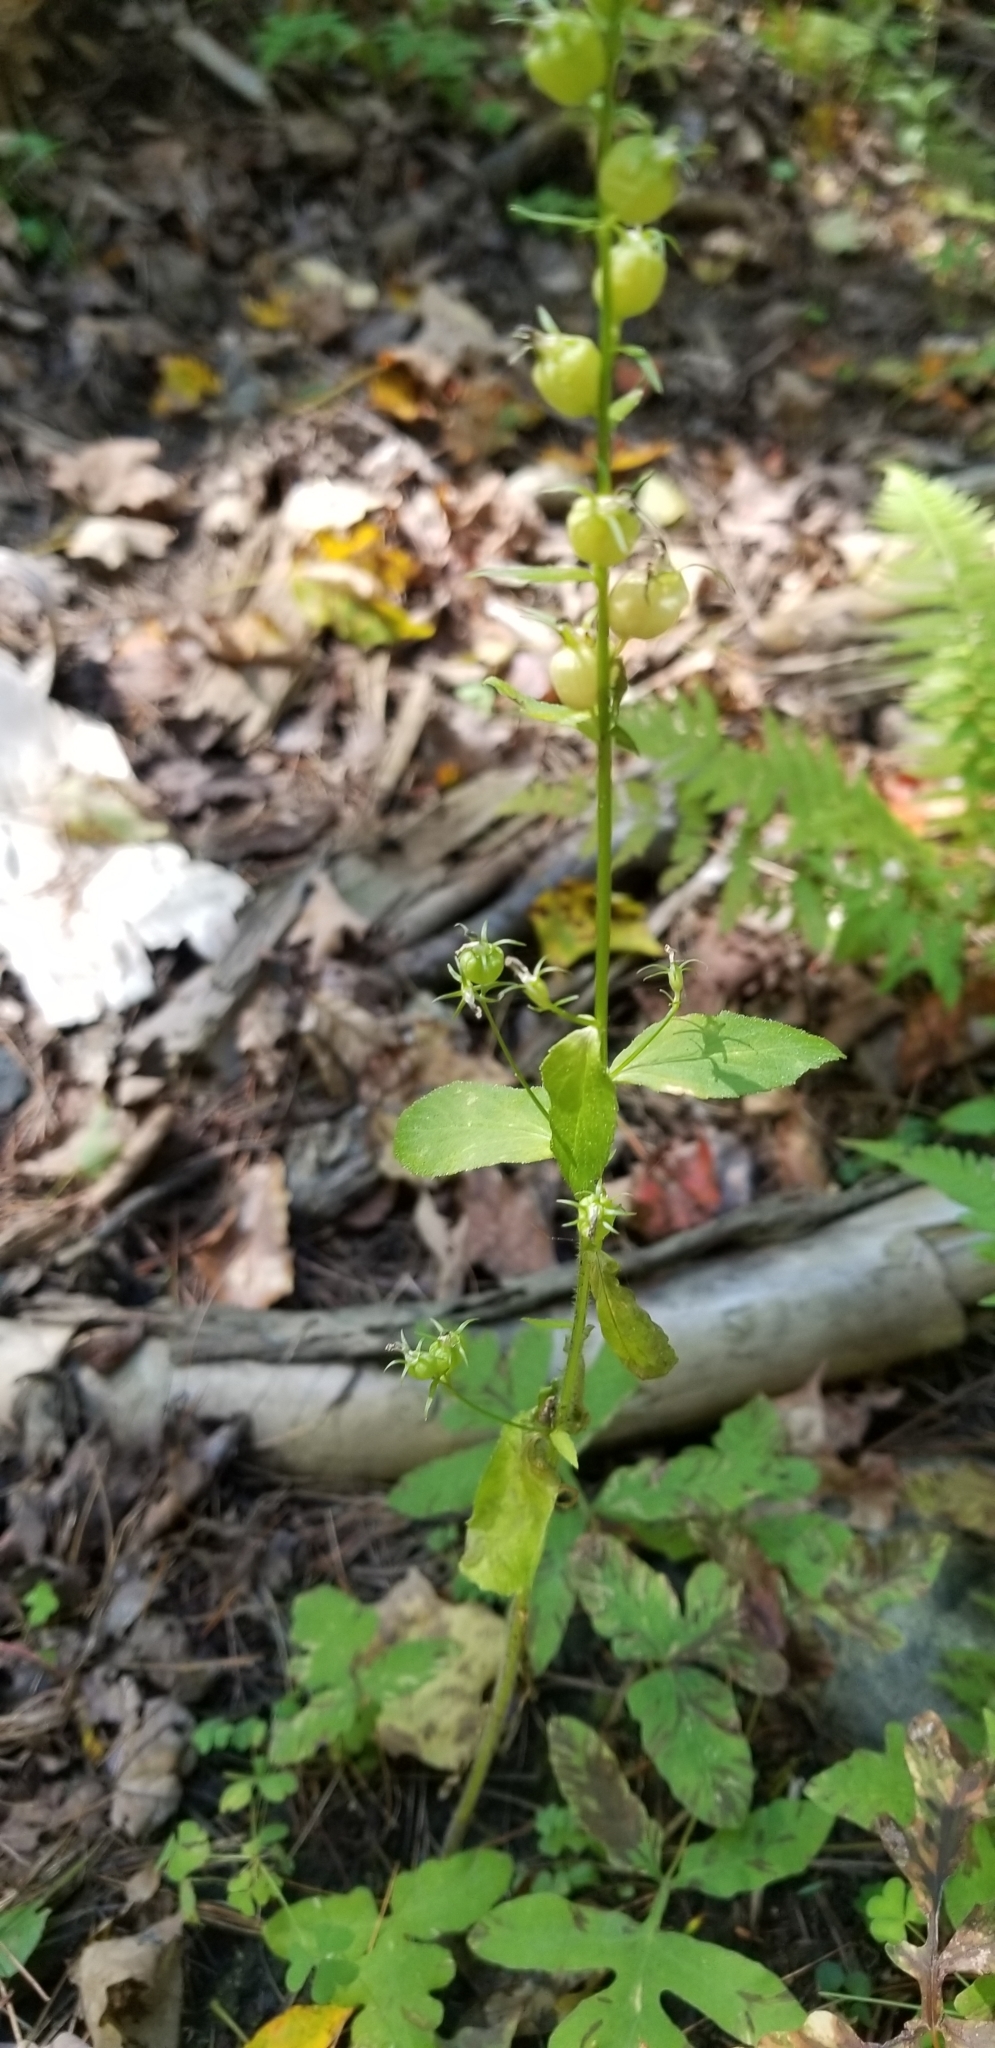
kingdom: Plantae
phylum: Tracheophyta
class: Magnoliopsida
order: Asterales
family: Campanulaceae
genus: Lobelia
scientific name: Lobelia inflata
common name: Indian tobacco
